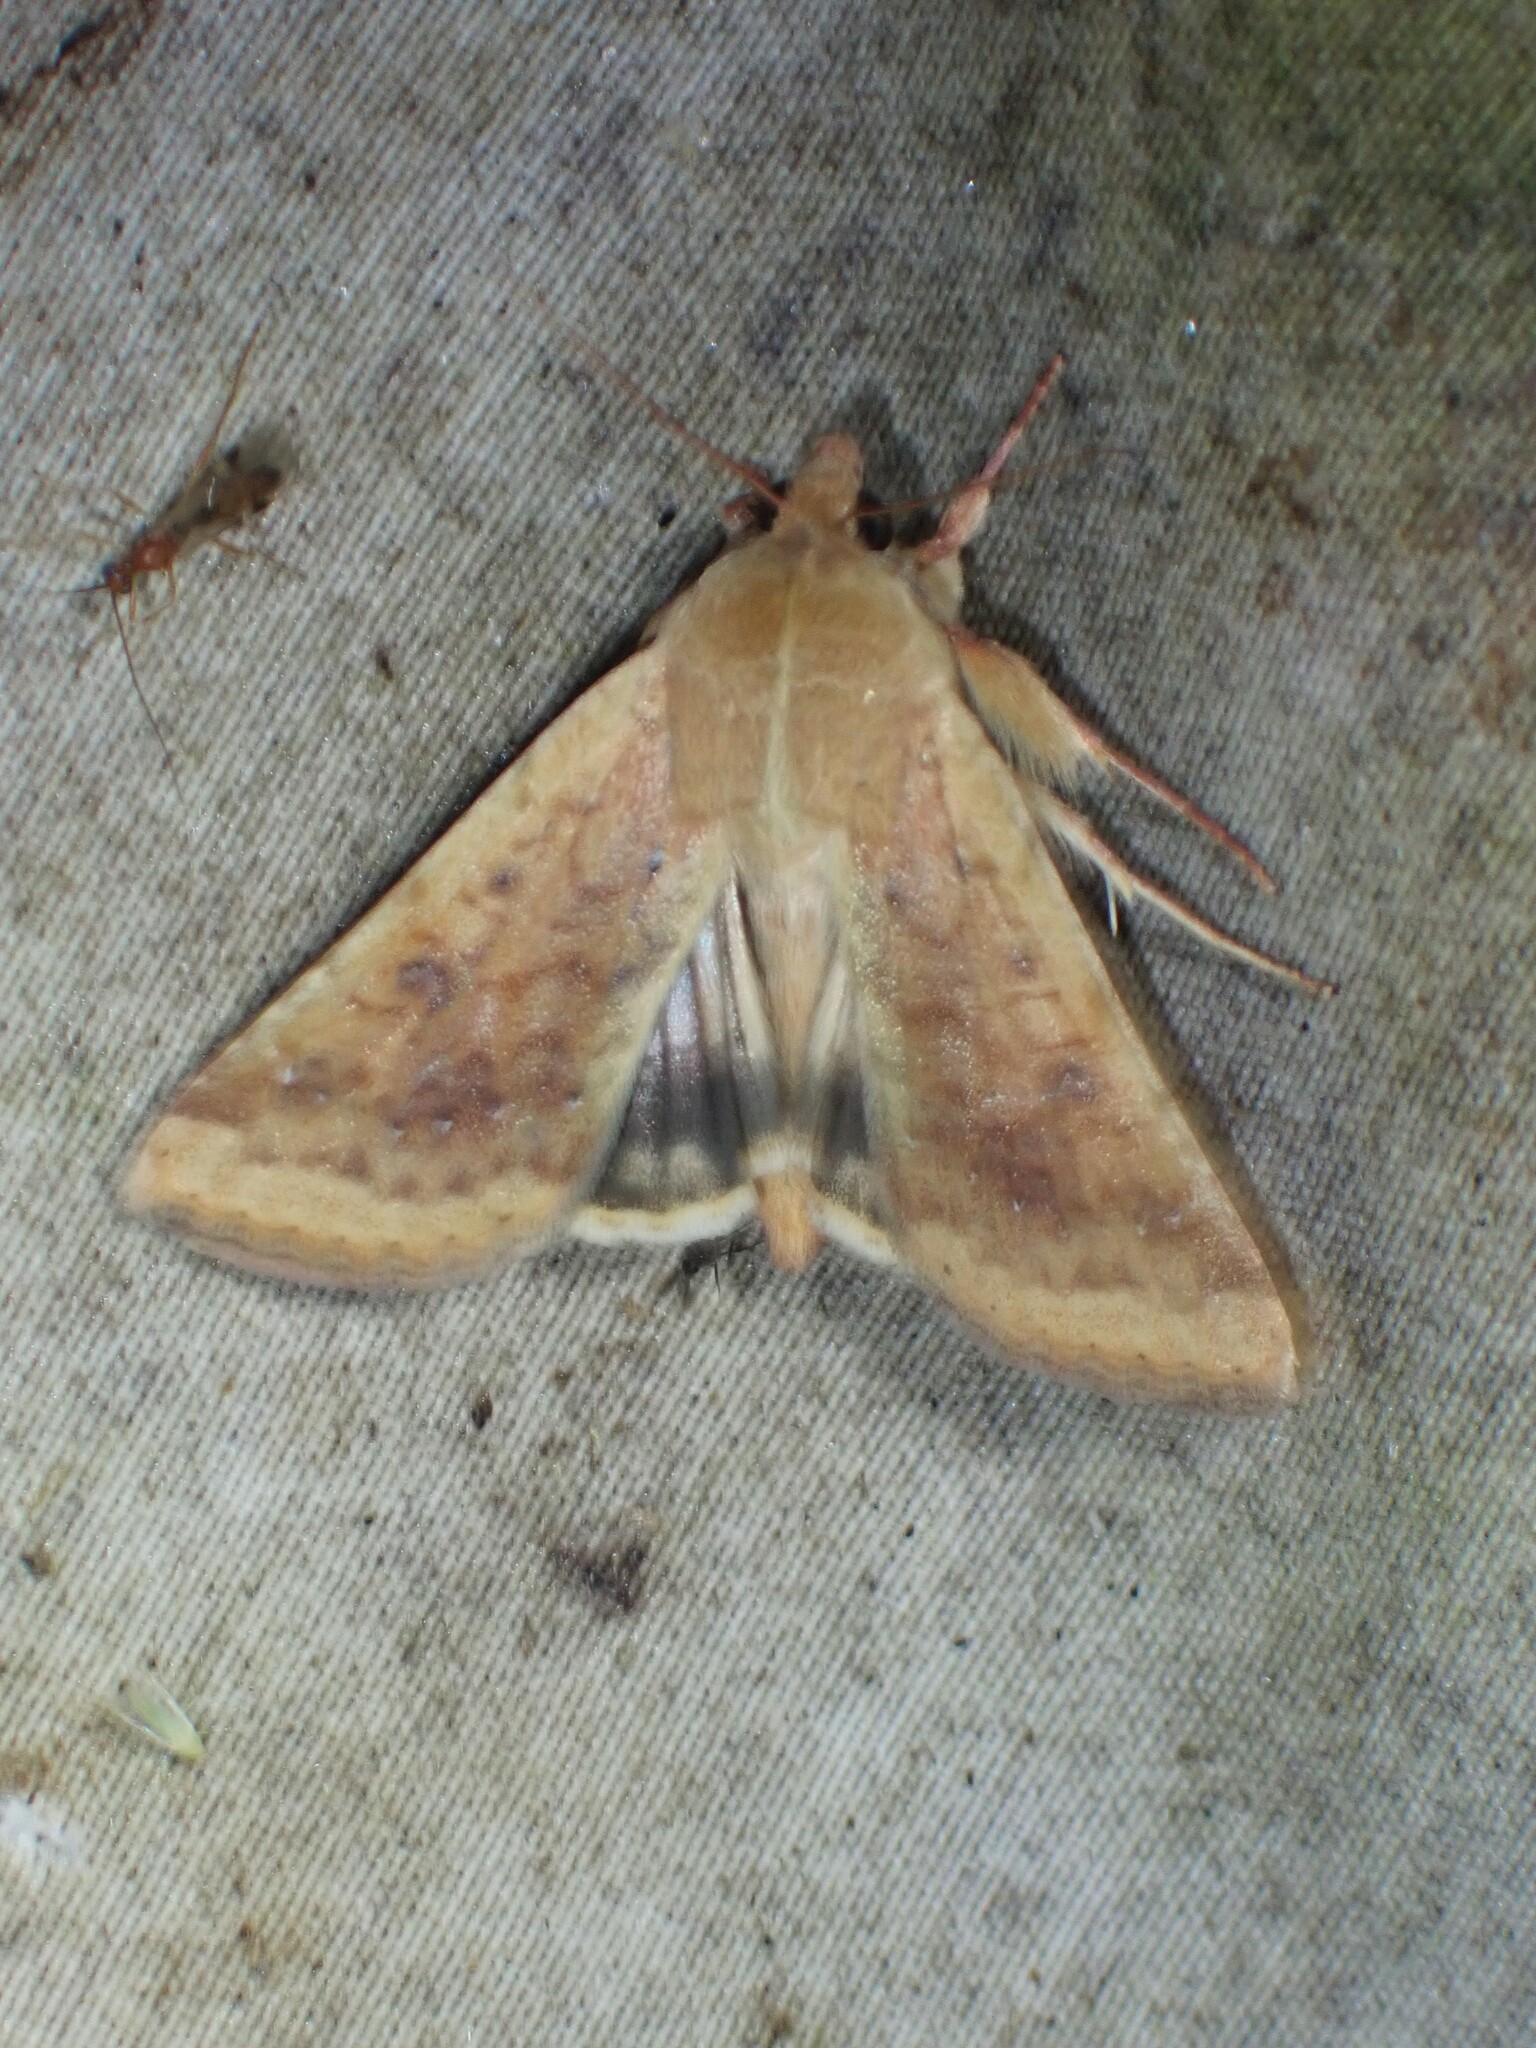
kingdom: Animalia
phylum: Arthropoda
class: Insecta
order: Lepidoptera
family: Noctuidae
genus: Helicoverpa
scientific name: Helicoverpa zea
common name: Bollworm
